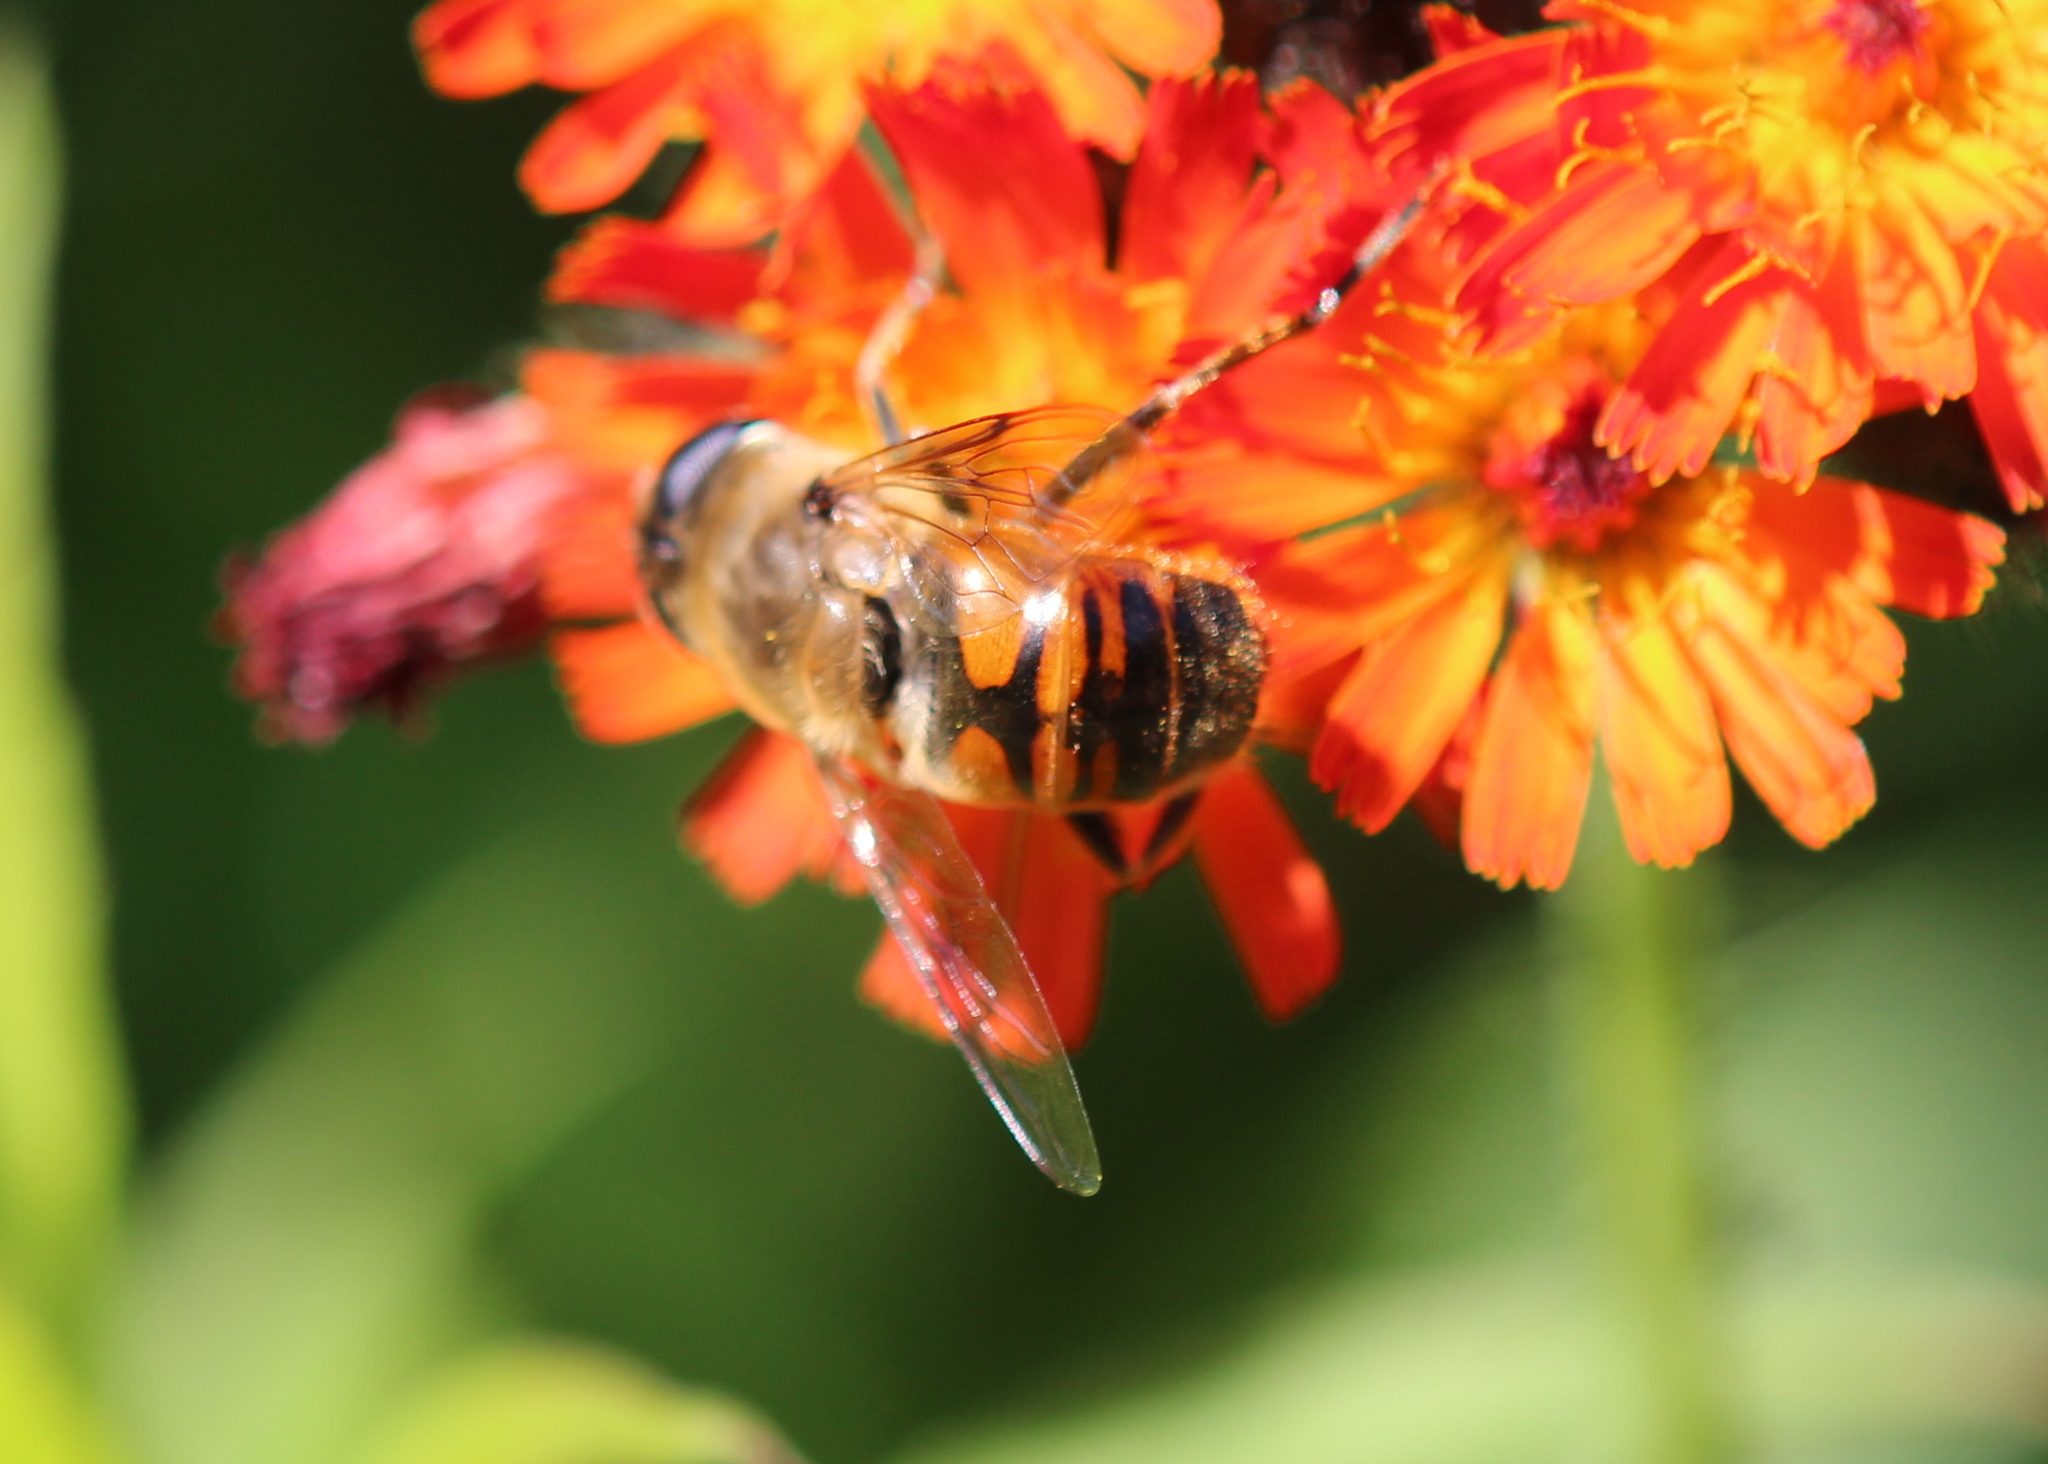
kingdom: Animalia
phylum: Arthropoda
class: Insecta
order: Diptera
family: Syrphidae
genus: Eristalis
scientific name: Eristalis tenax
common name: Drone fly
